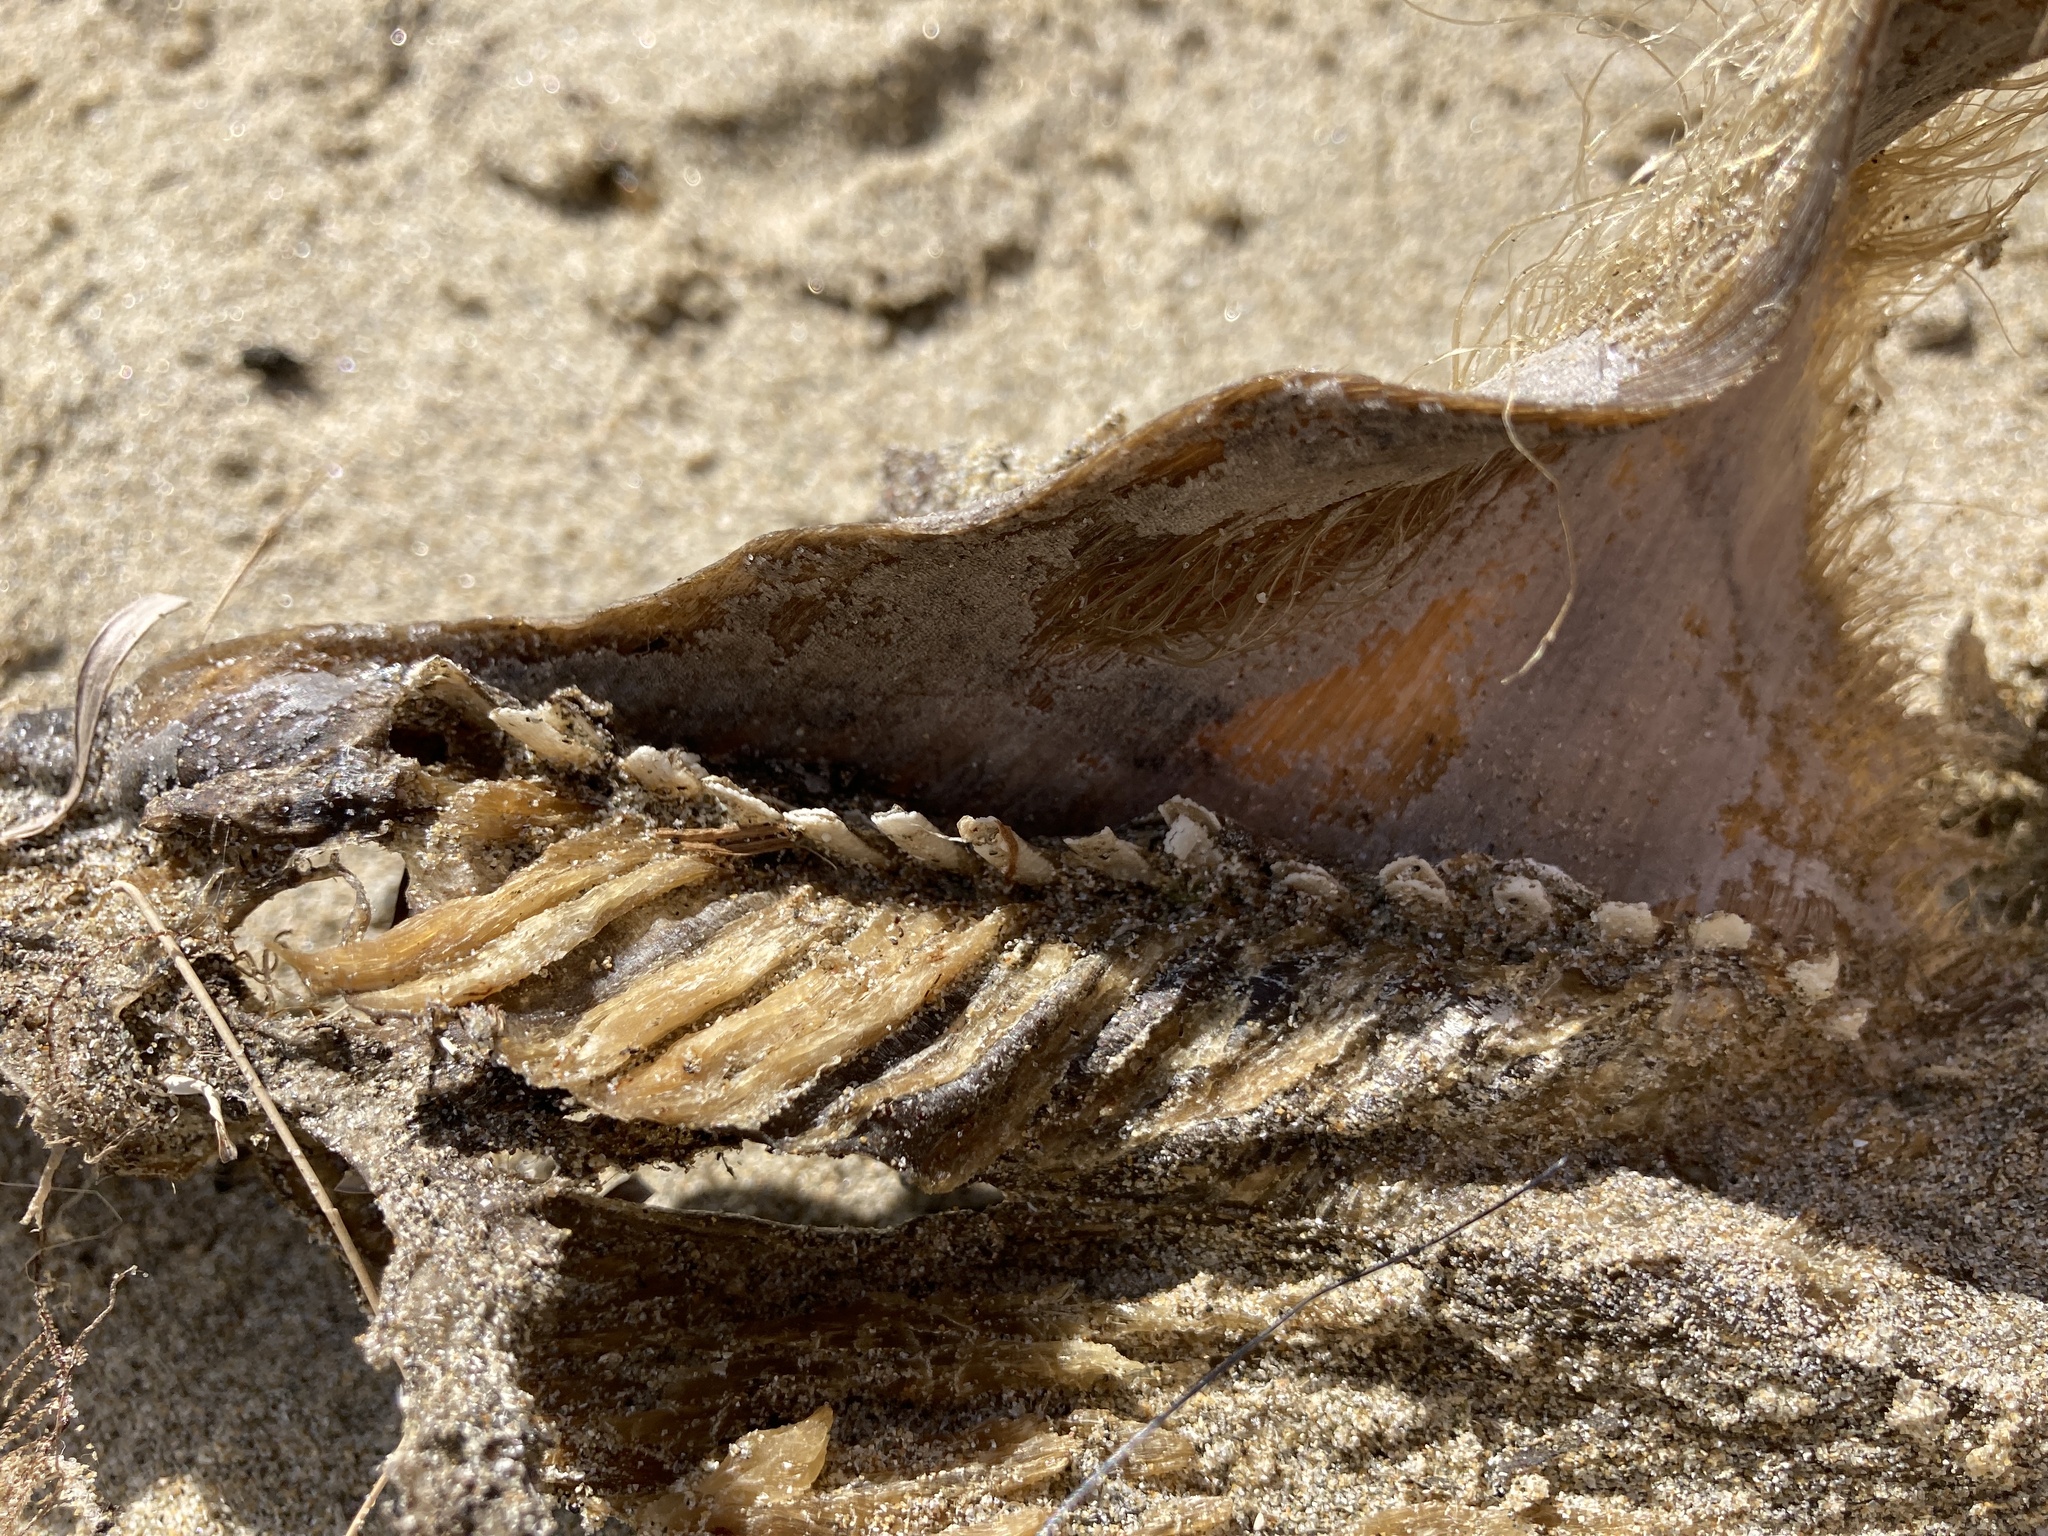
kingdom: Animalia
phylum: Chordata
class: Holocephali
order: Chimaeriformes
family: Callorhinchidae
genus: Callorhinchus
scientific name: Callorhinchus milii
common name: Elephant fish
